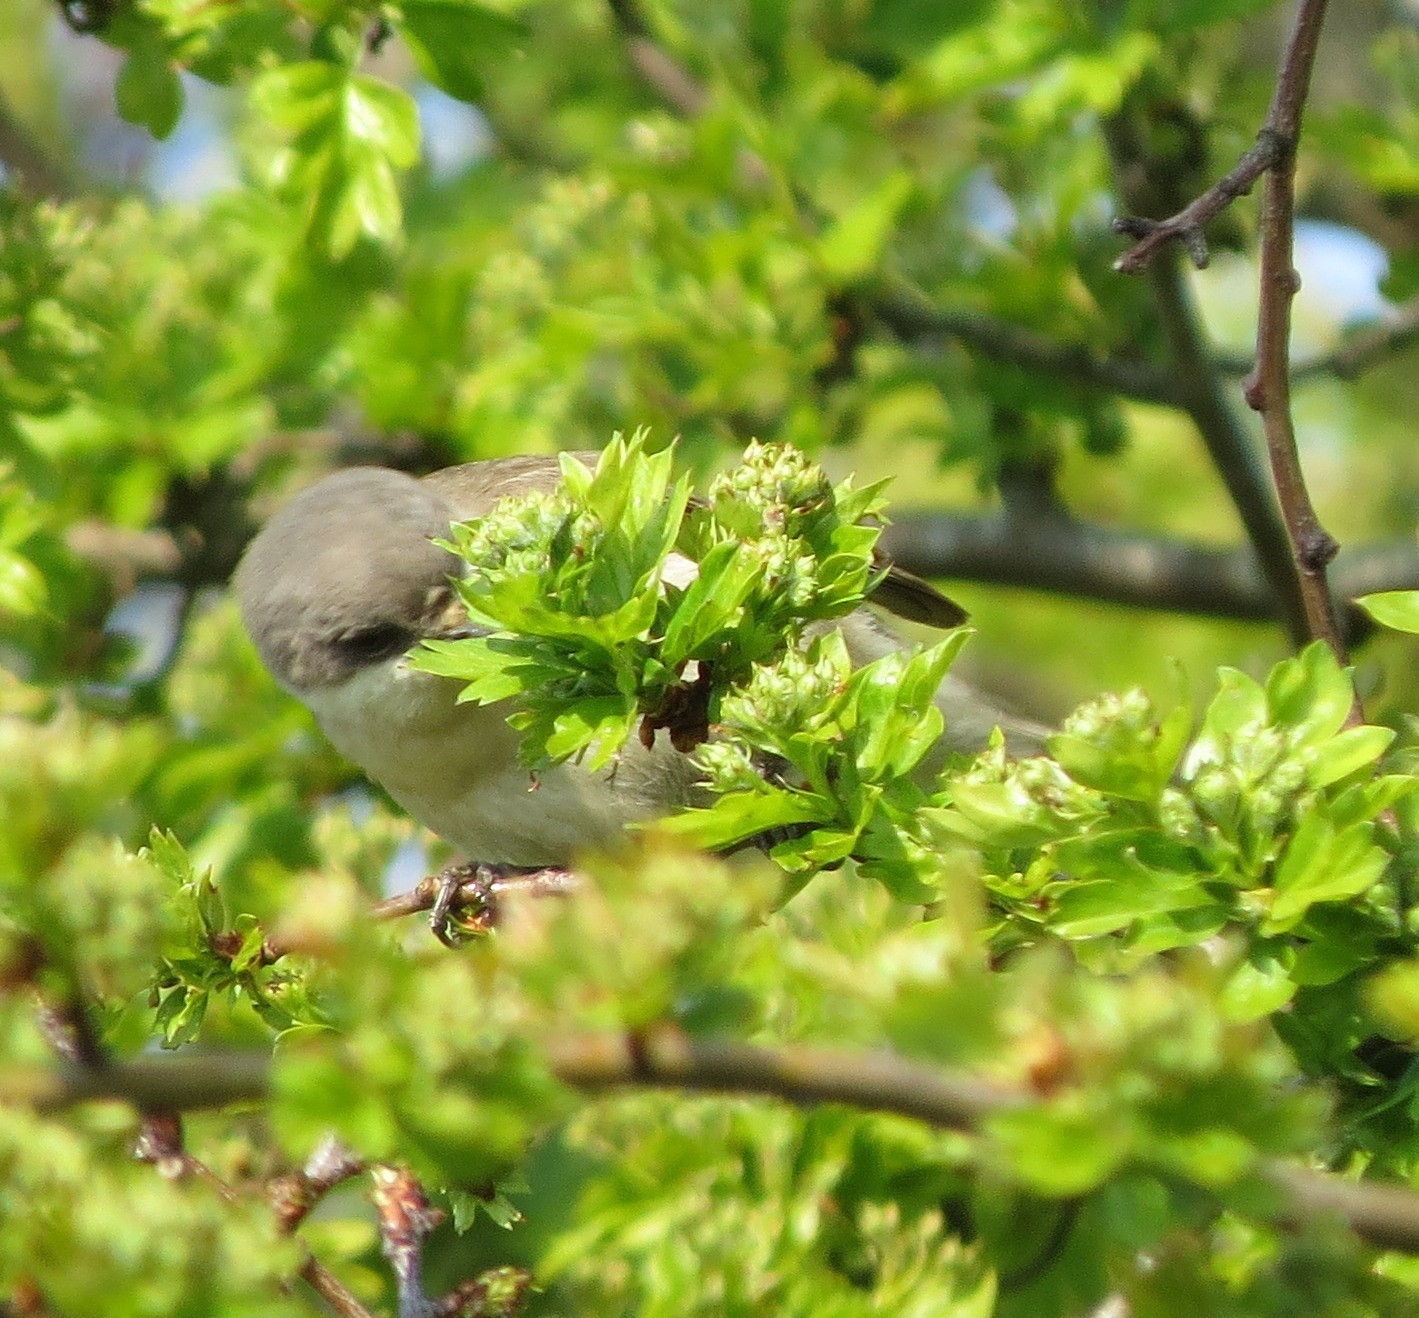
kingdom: Animalia
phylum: Chordata
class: Aves
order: Passeriformes
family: Sylviidae
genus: Sylvia
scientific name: Sylvia curruca
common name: Lesser whitethroat
